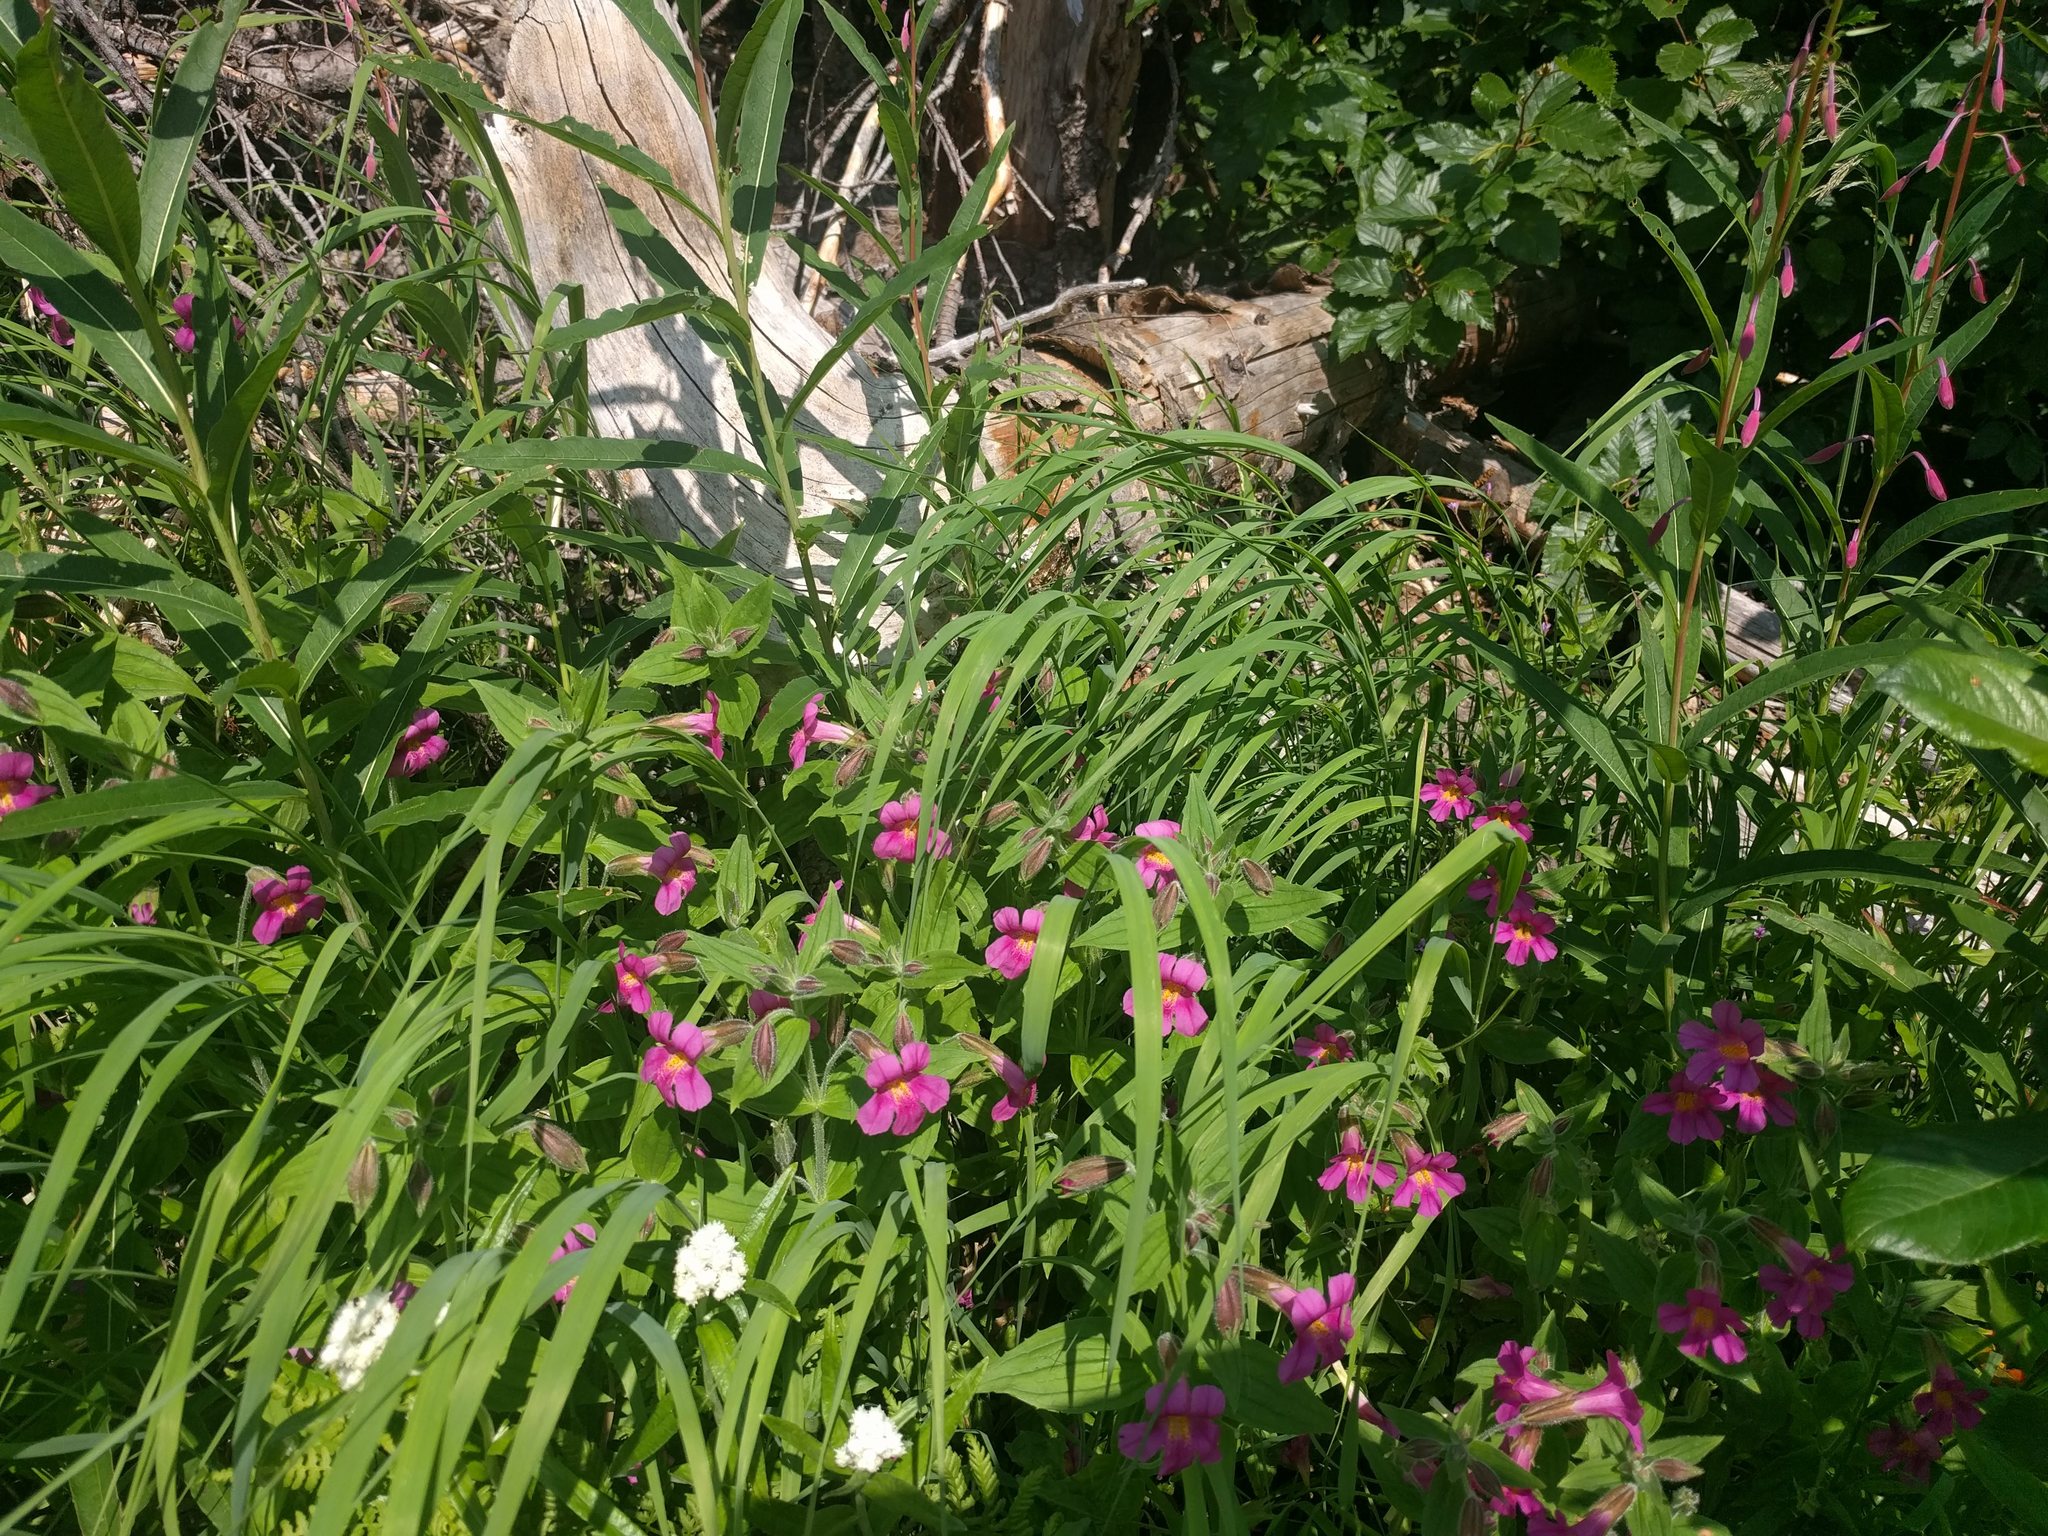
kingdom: Plantae
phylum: Tracheophyta
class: Magnoliopsida
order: Lamiales
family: Phrymaceae
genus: Erythranthe
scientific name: Erythranthe lewisii
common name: Lewis's monkey-flower
